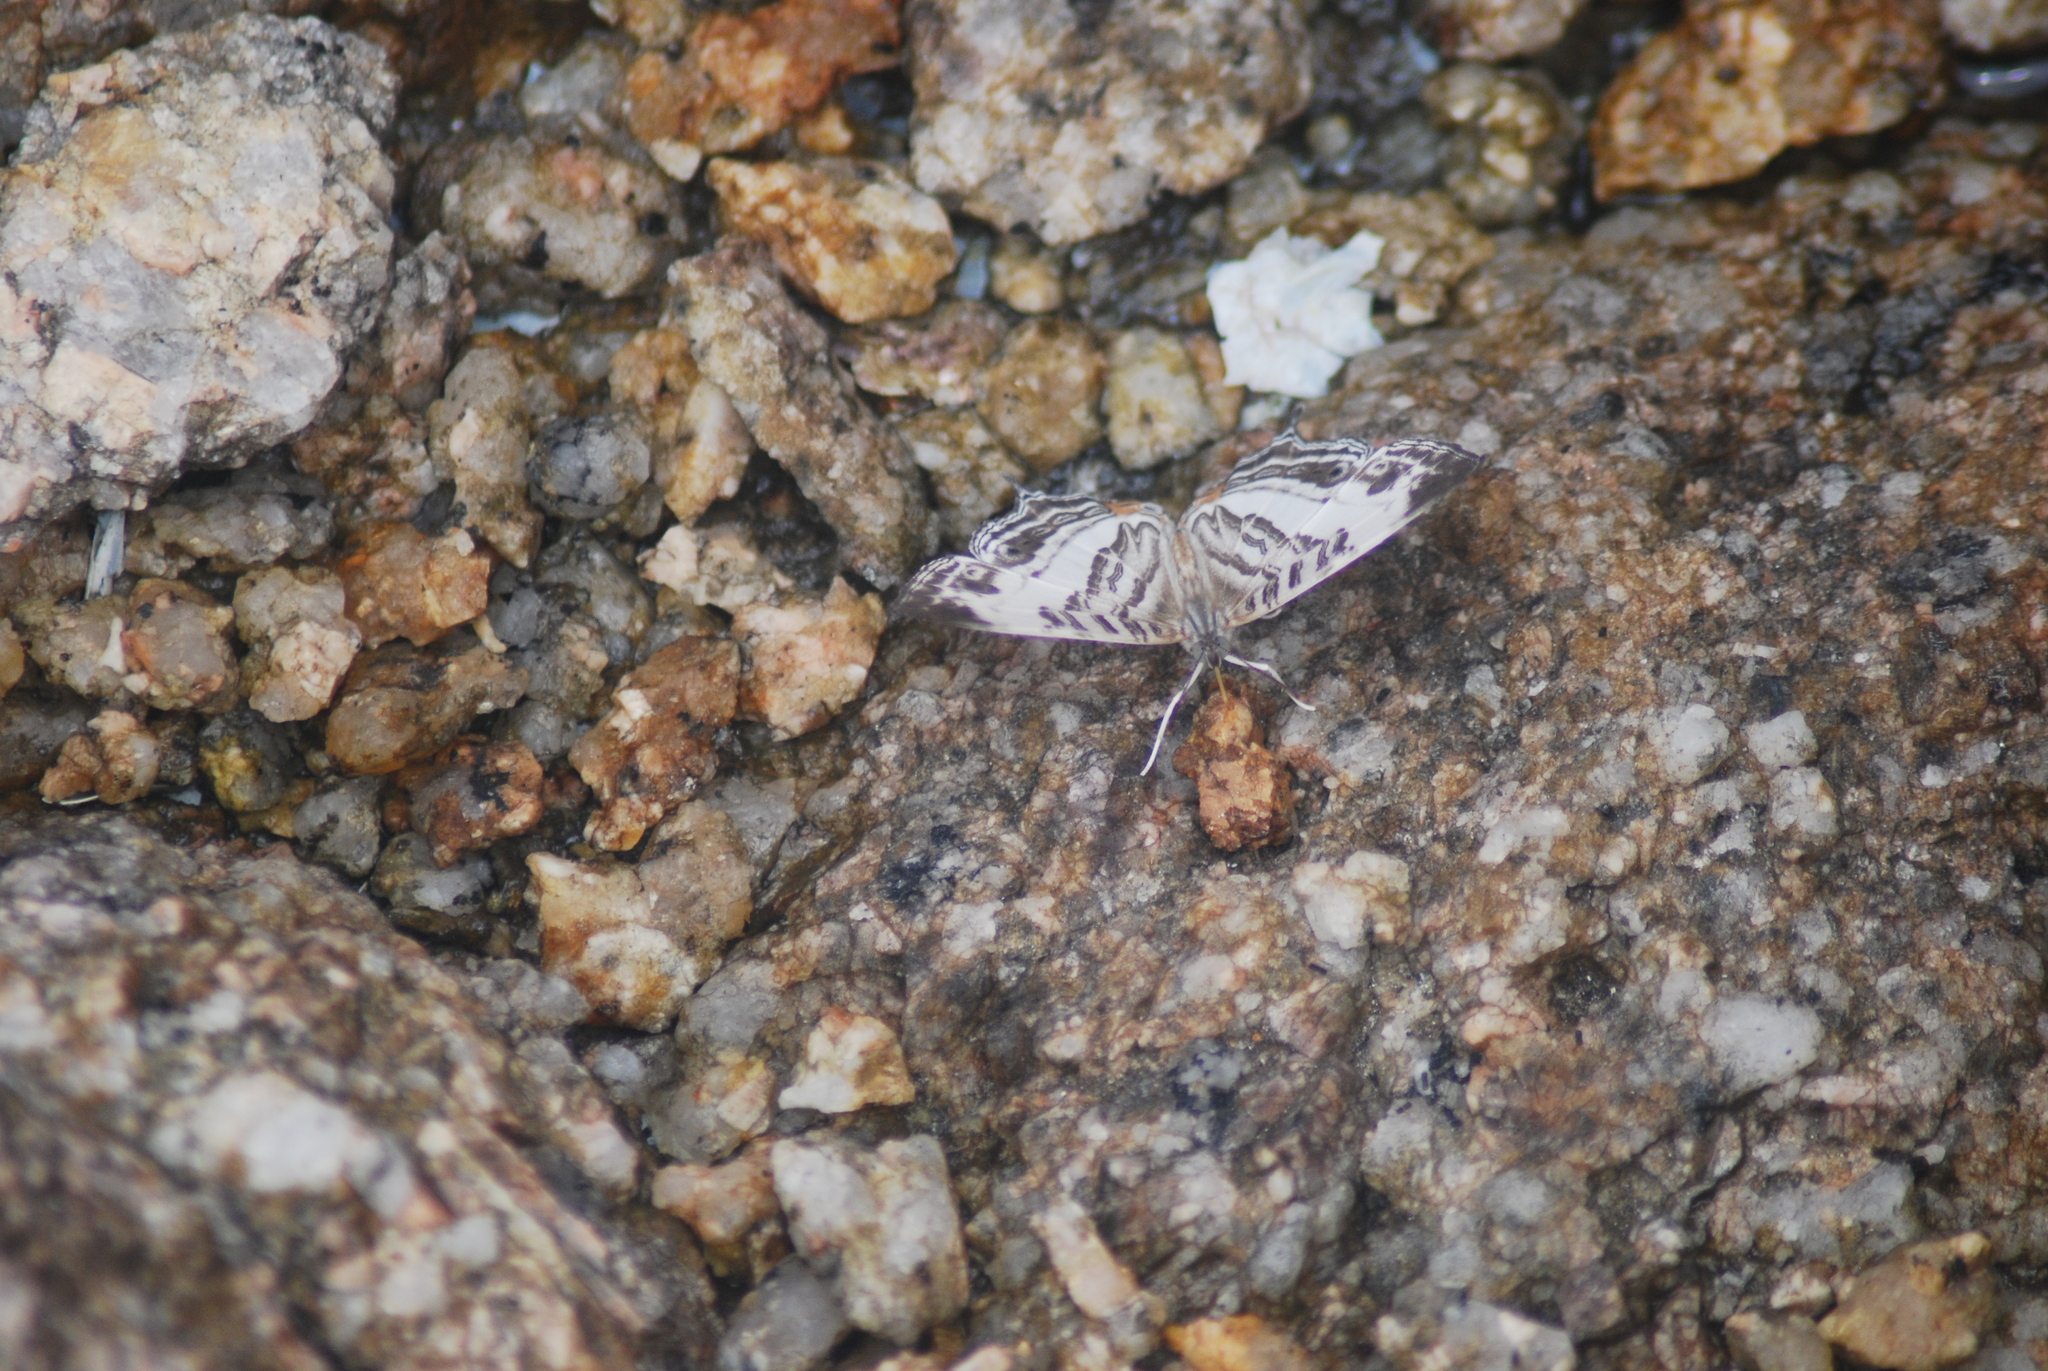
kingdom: Animalia
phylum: Arthropoda
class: Insecta
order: Lepidoptera
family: Nymphalidae
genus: Cyrestis
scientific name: Cyrestis cocles
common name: Marbled map
